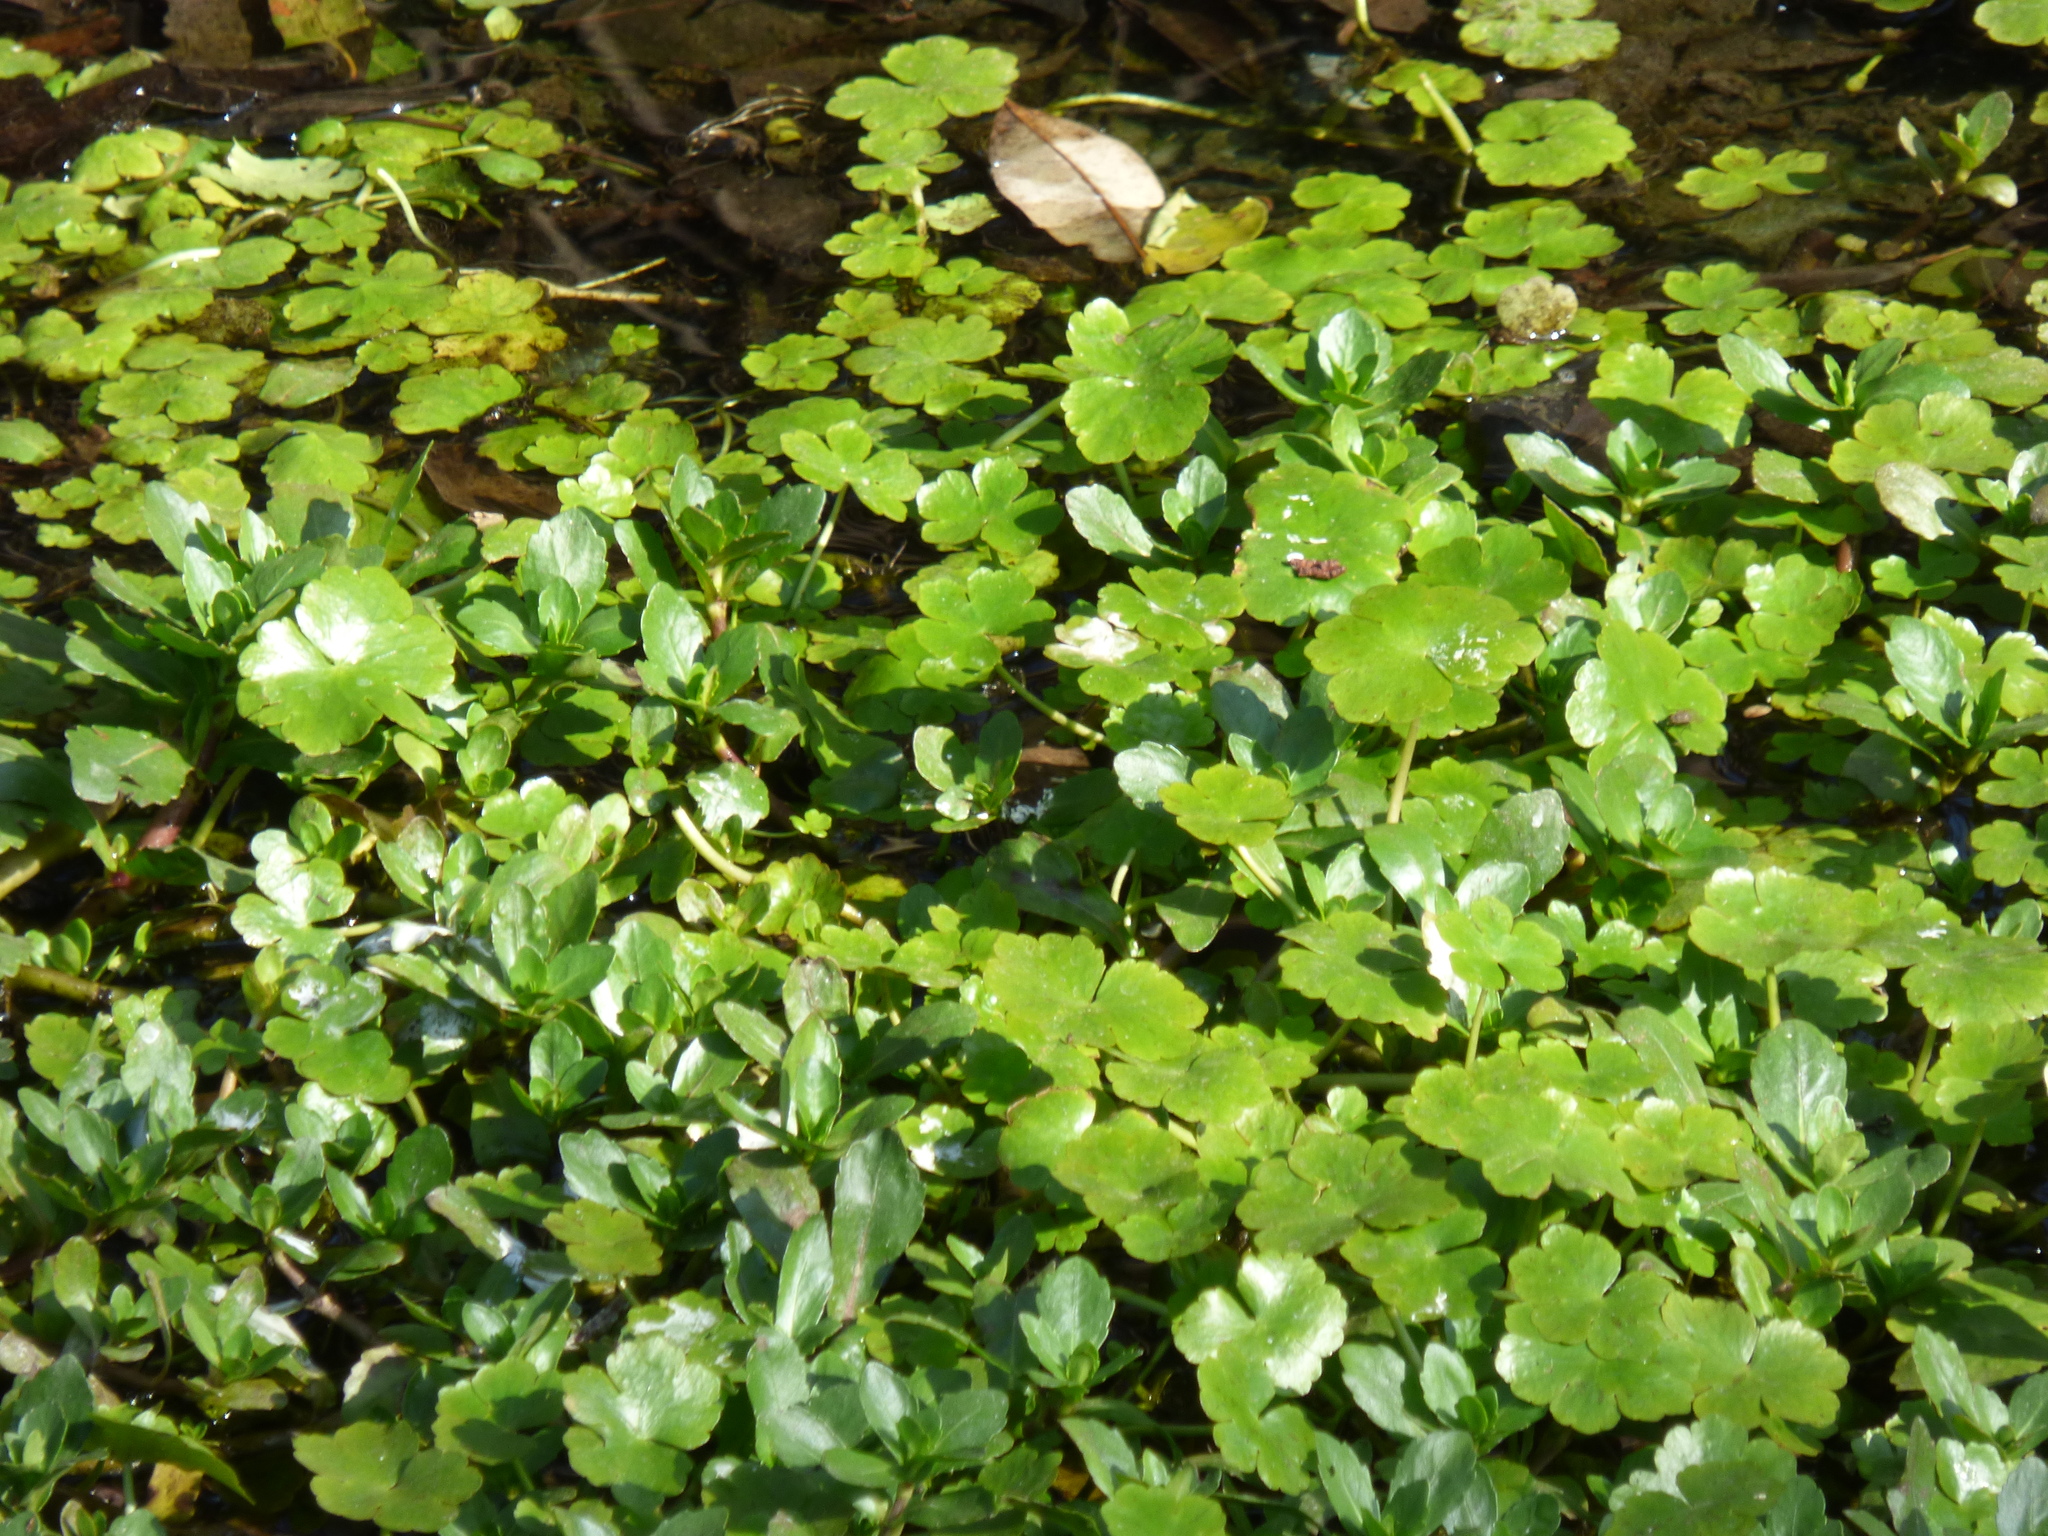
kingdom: Plantae
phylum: Tracheophyta
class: Magnoliopsida
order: Apiales
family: Araliaceae
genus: Hydrocotyle
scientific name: Hydrocotyle ranunculoides
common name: Floating pennywort
